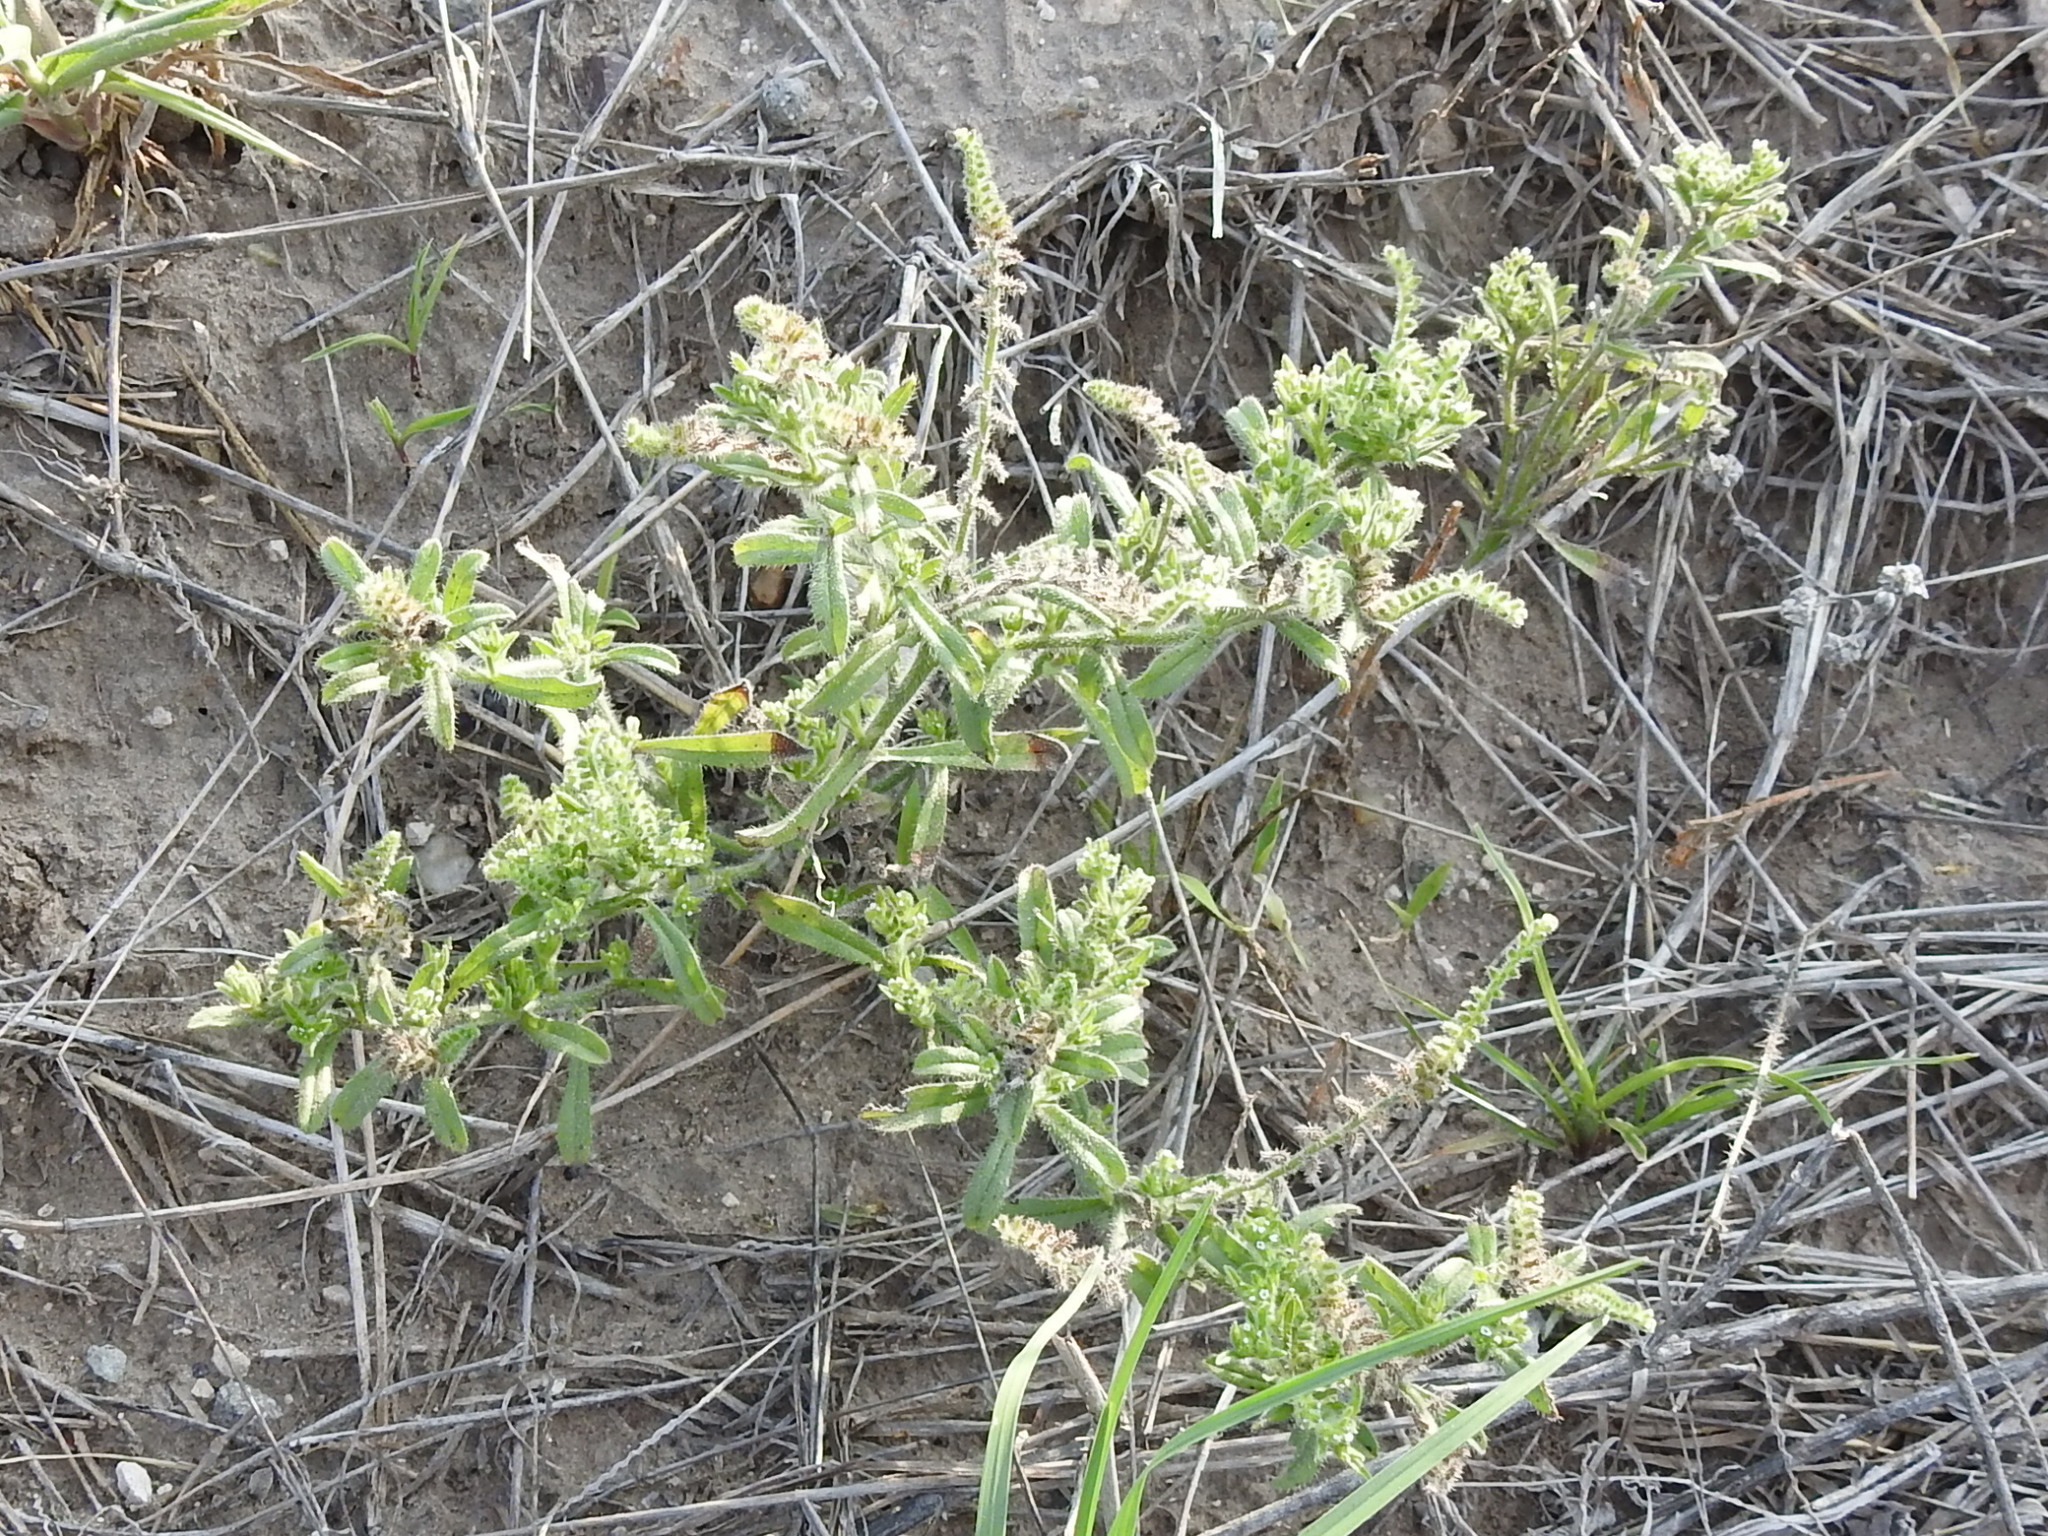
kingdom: Plantae
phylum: Tracheophyta
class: Magnoliopsida
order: Boraginales
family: Boraginaceae
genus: Cryptantha
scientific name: Cryptantha texana
